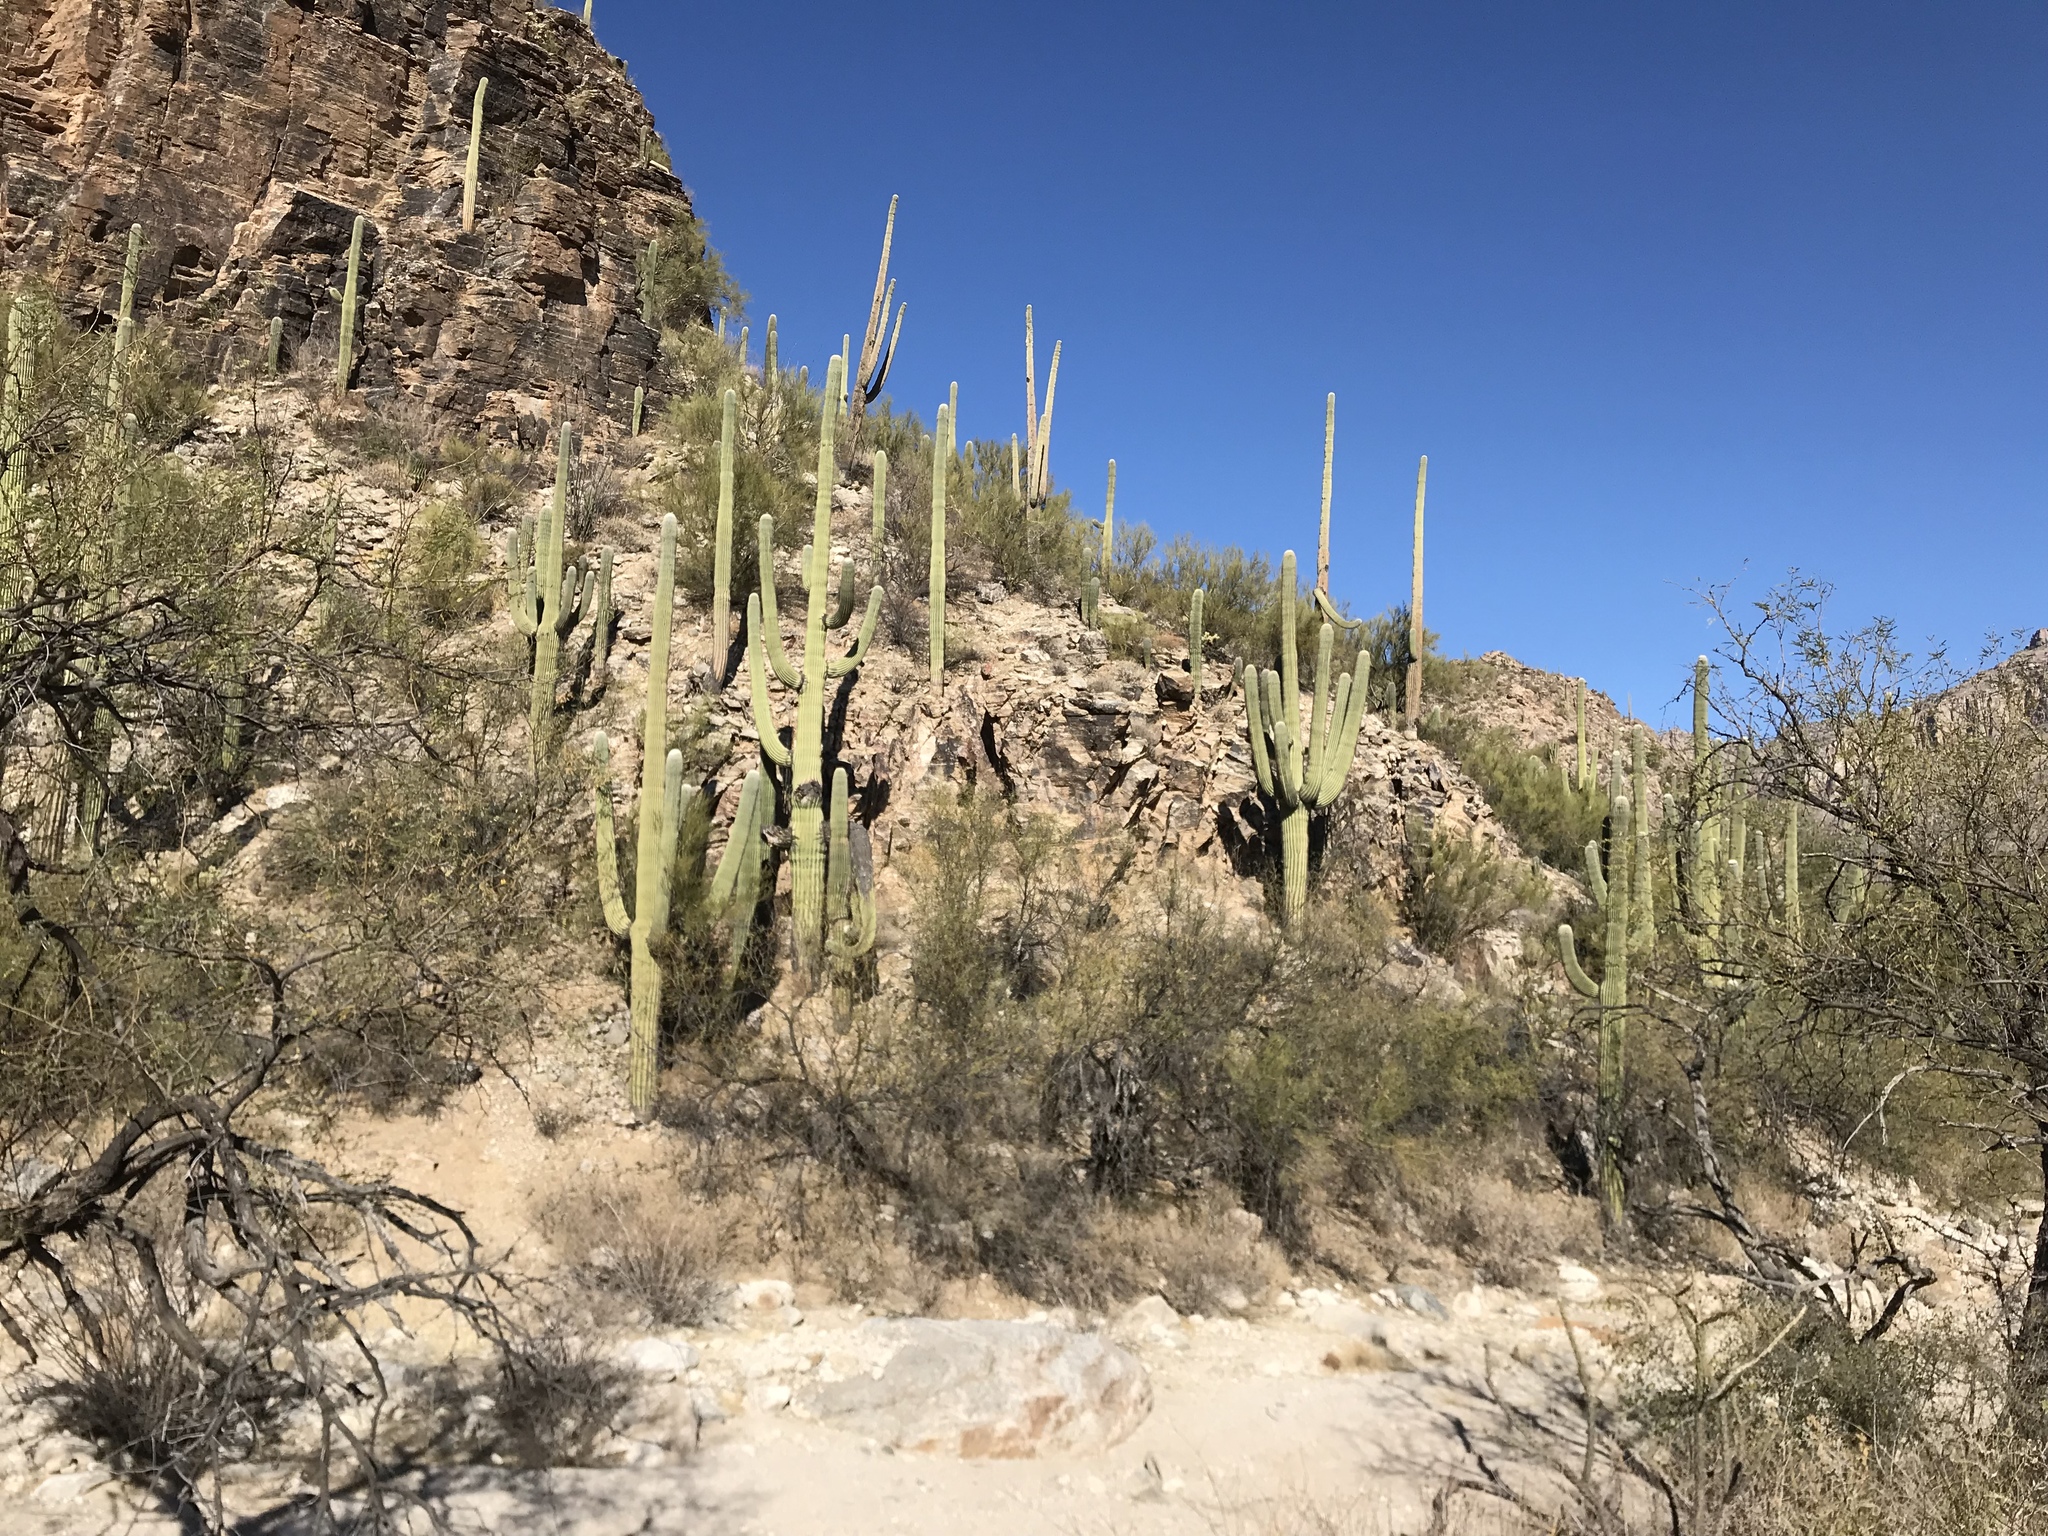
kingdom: Plantae
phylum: Tracheophyta
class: Magnoliopsida
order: Caryophyllales
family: Cactaceae
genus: Carnegiea
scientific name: Carnegiea gigantea
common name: Saguaro
